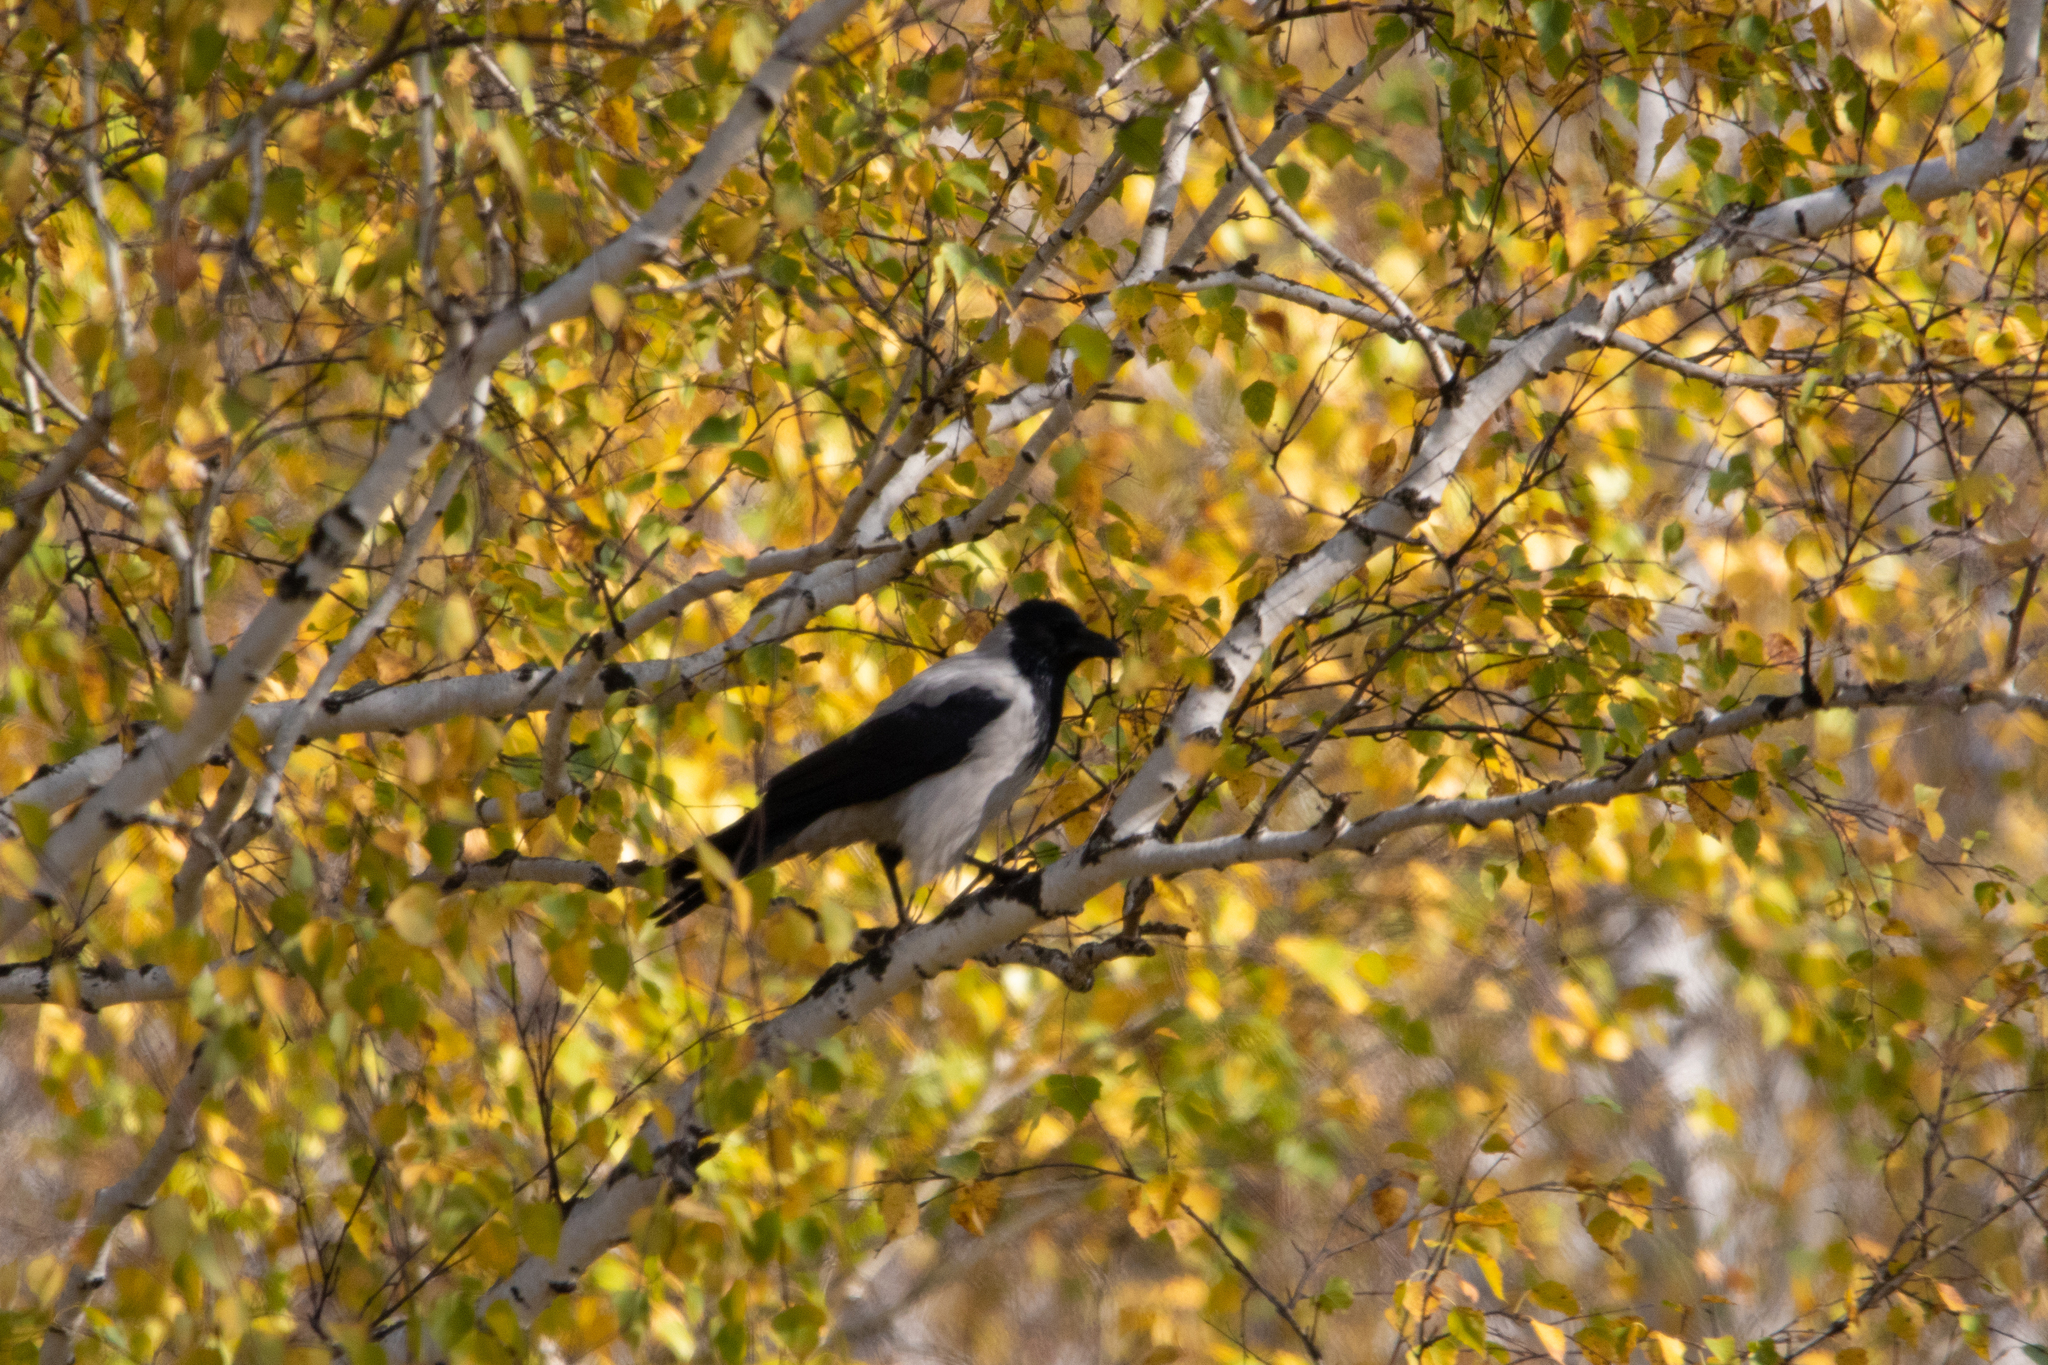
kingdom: Animalia
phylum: Chordata
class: Aves
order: Passeriformes
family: Corvidae
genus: Corvus
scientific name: Corvus cornix
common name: Hooded crow
